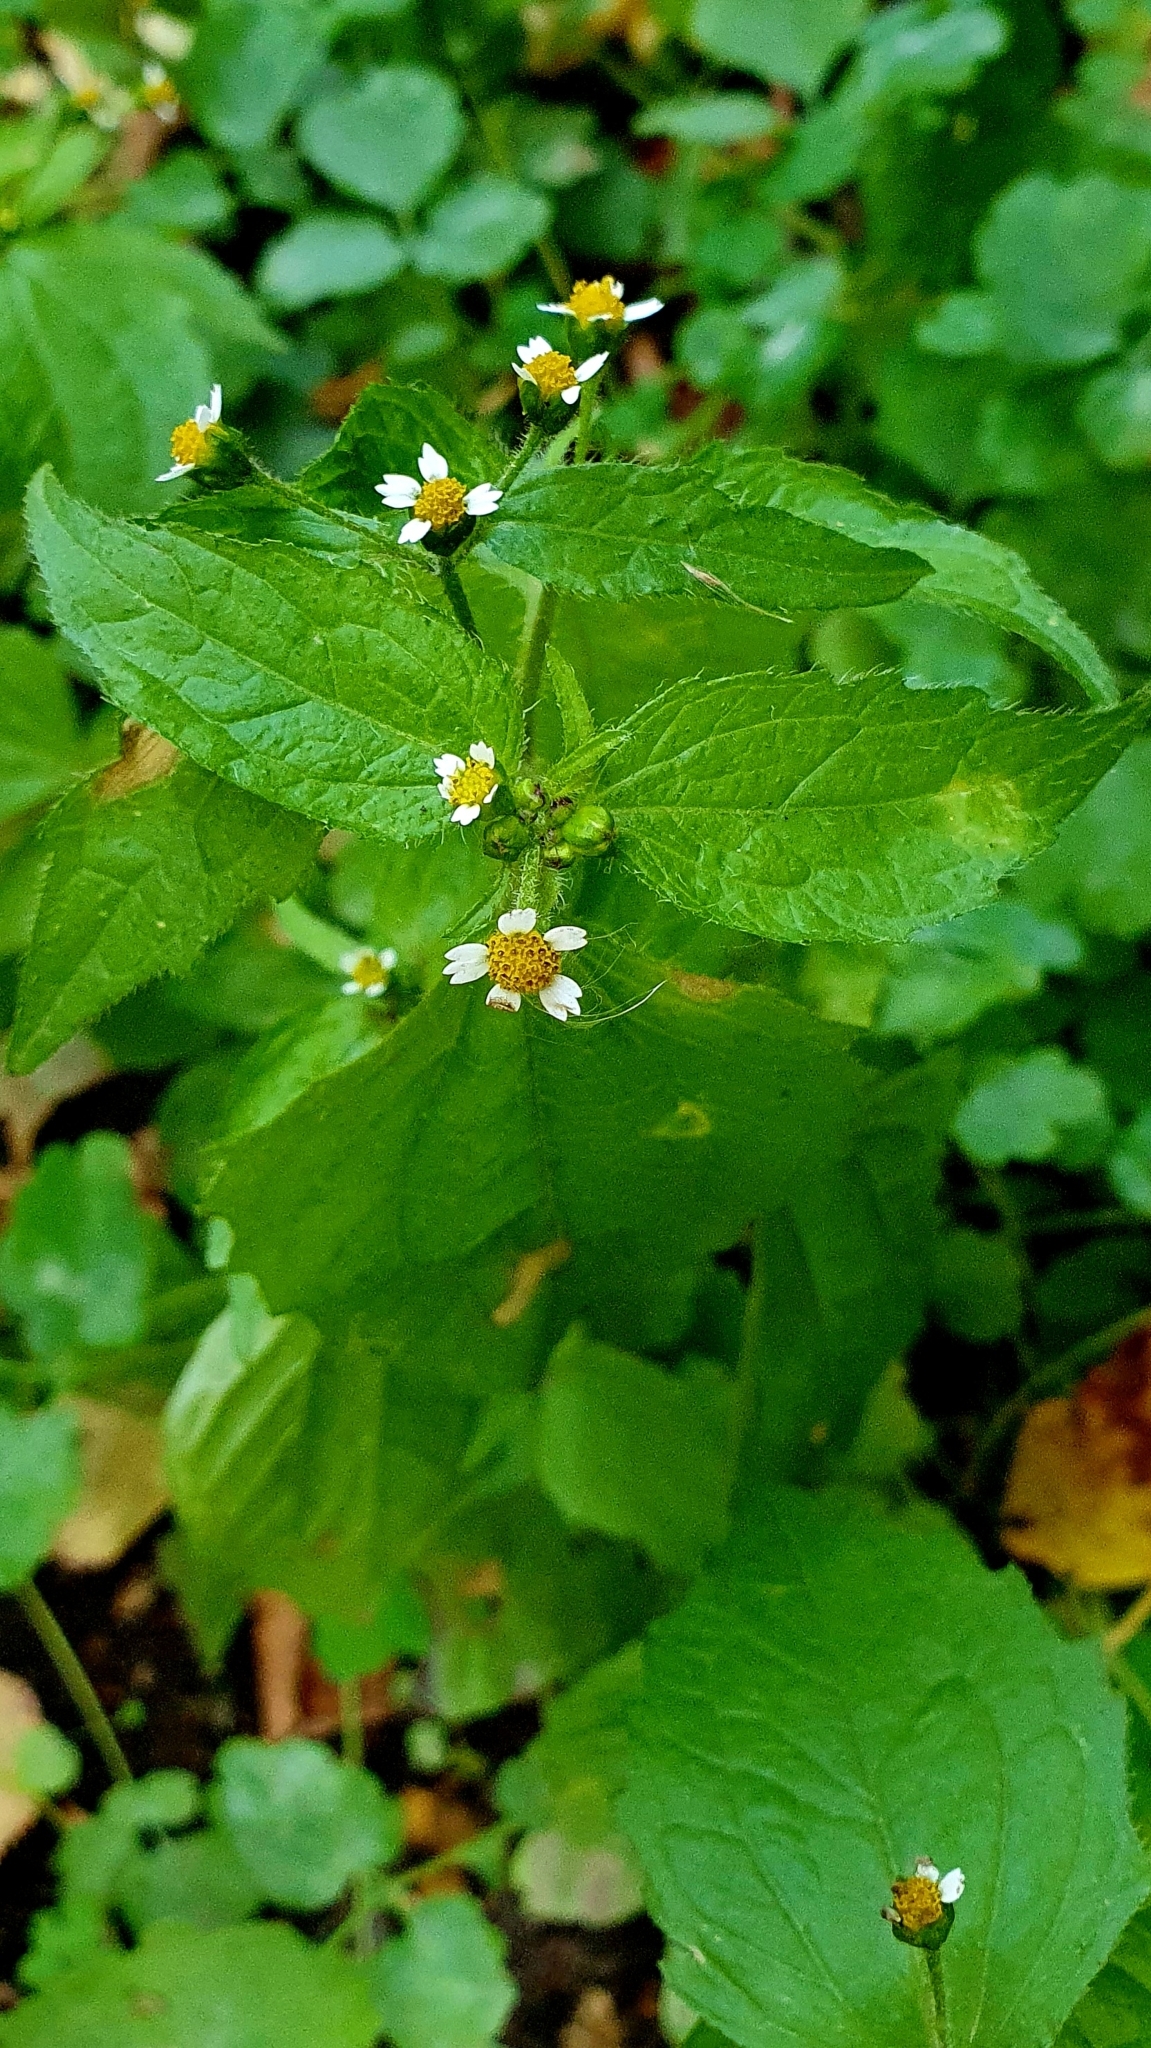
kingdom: Plantae
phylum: Tracheophyta
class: Magnoliopsida
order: Asterales
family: Asteraceae
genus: Galinsoga
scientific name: Galinsoga quadriradiata
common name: Shaggy soldier
